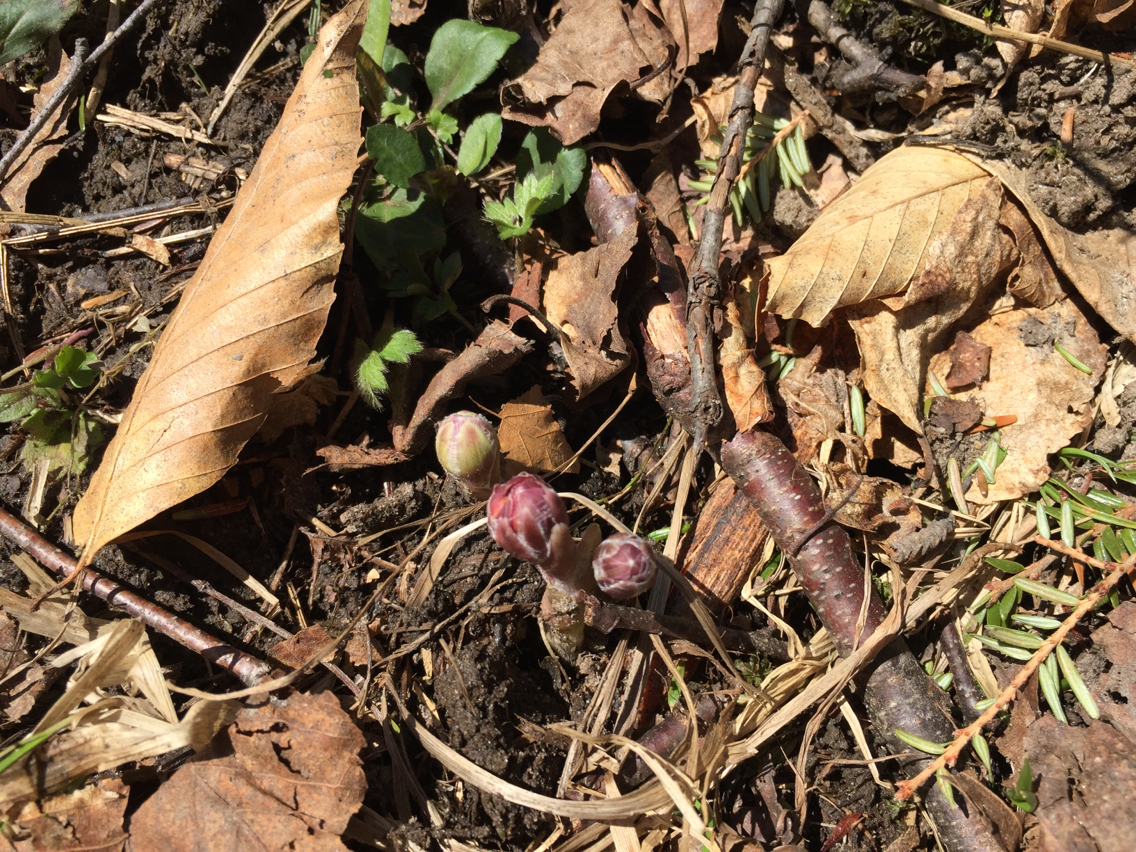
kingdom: Plantae
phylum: Tracheophyta
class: Magnoliopsida
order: Asterales
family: Asteraceae
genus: Tussilago
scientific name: Tussilago farfara
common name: Coltsfoot
